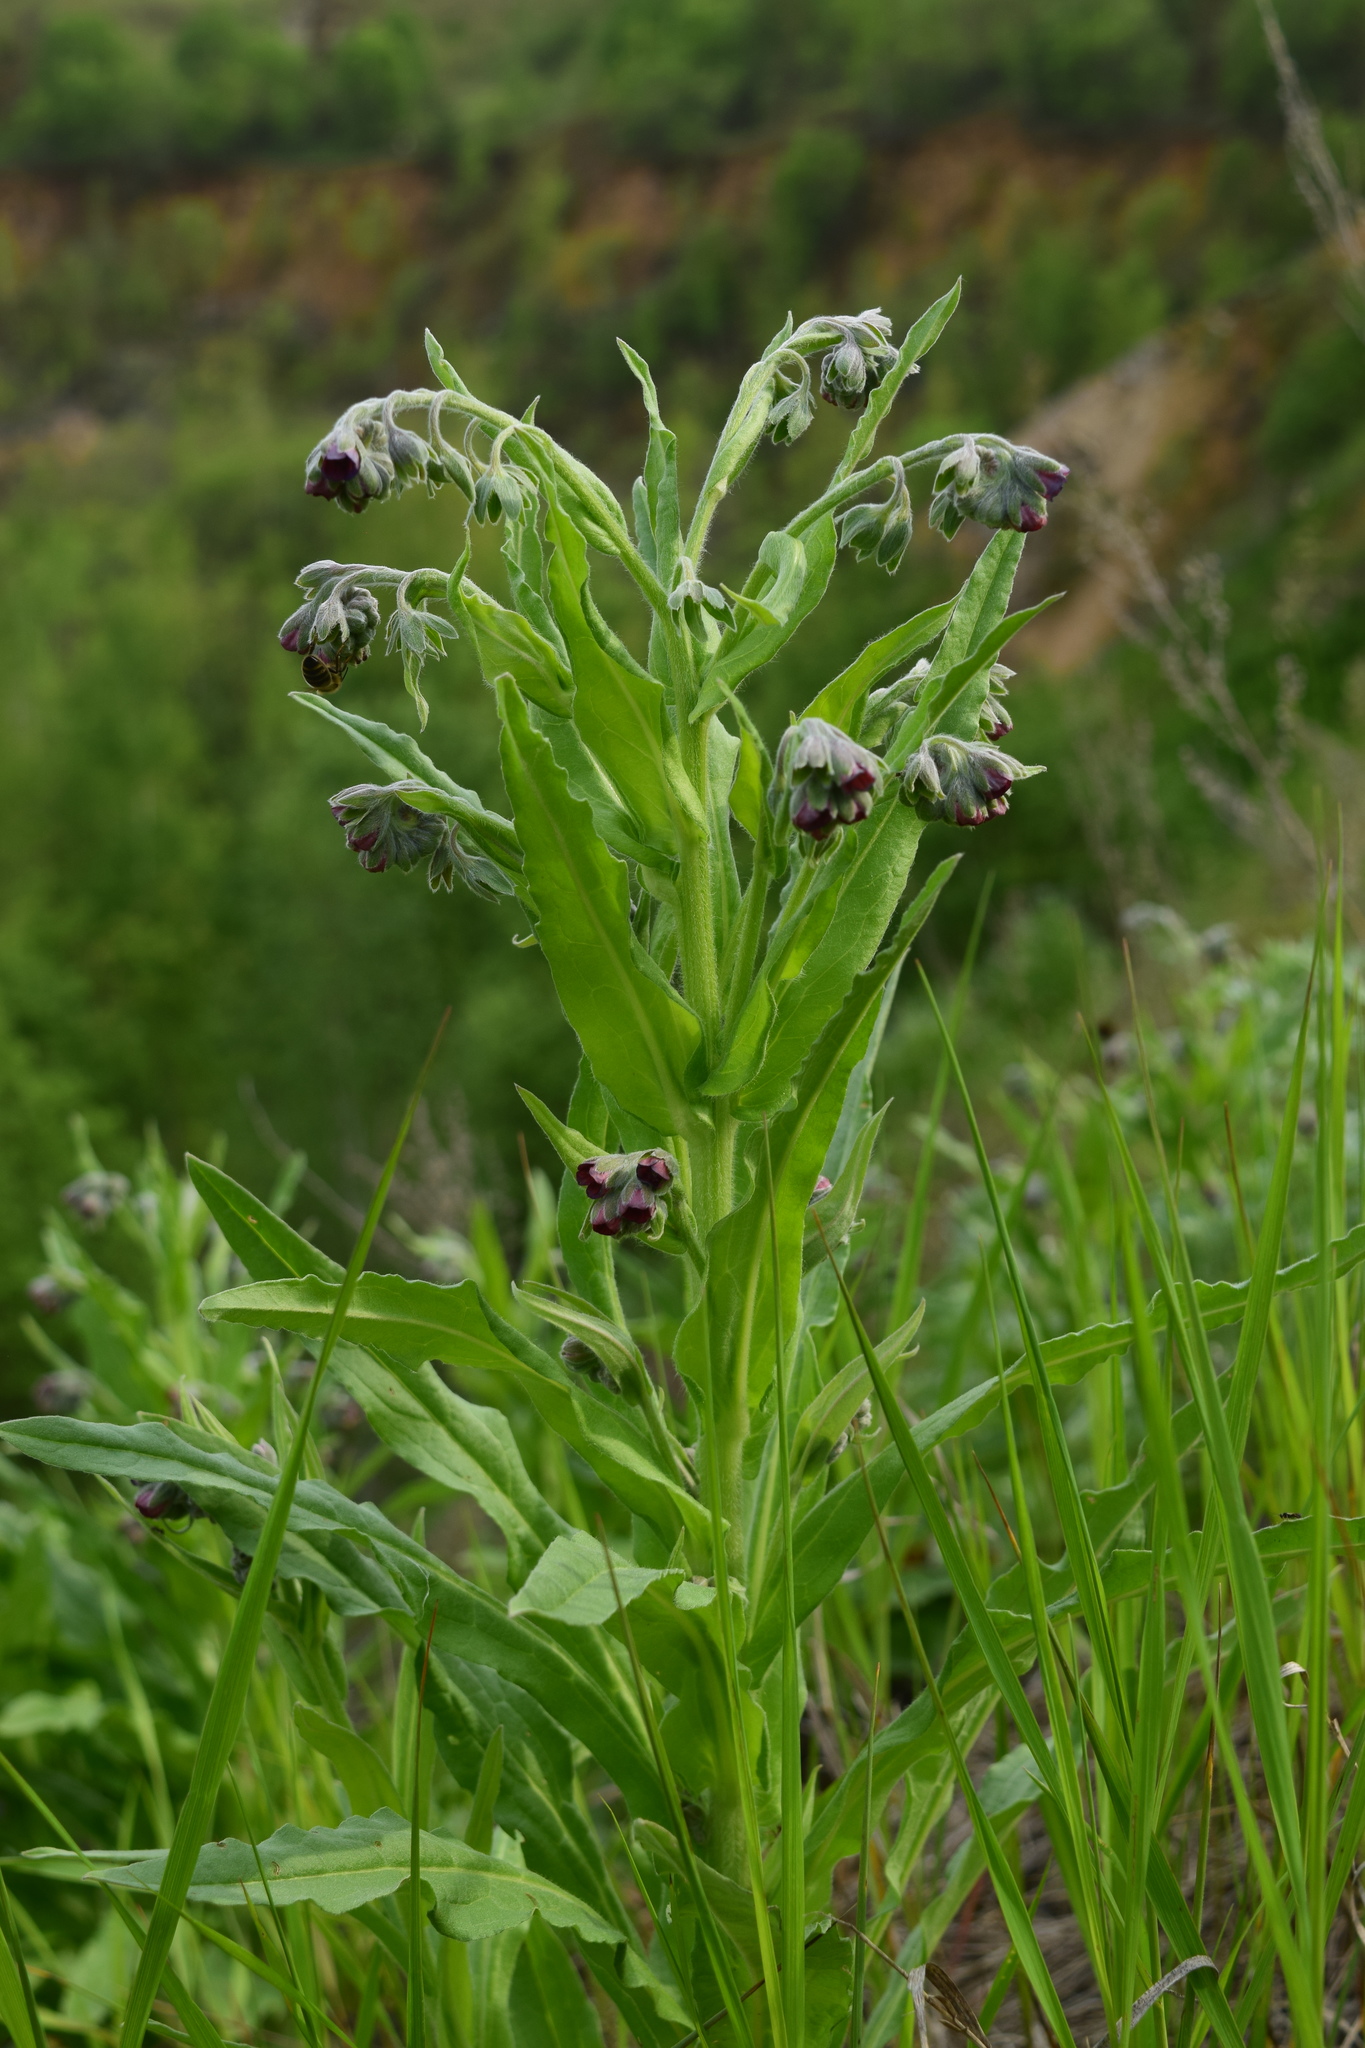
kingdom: Plantae
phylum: Tracheophyta
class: Magnoliopsida
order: Boraginales
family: Boraginaceae
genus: Cynoglossum
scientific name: Cynoglossum officinale
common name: Hound's-tongue
